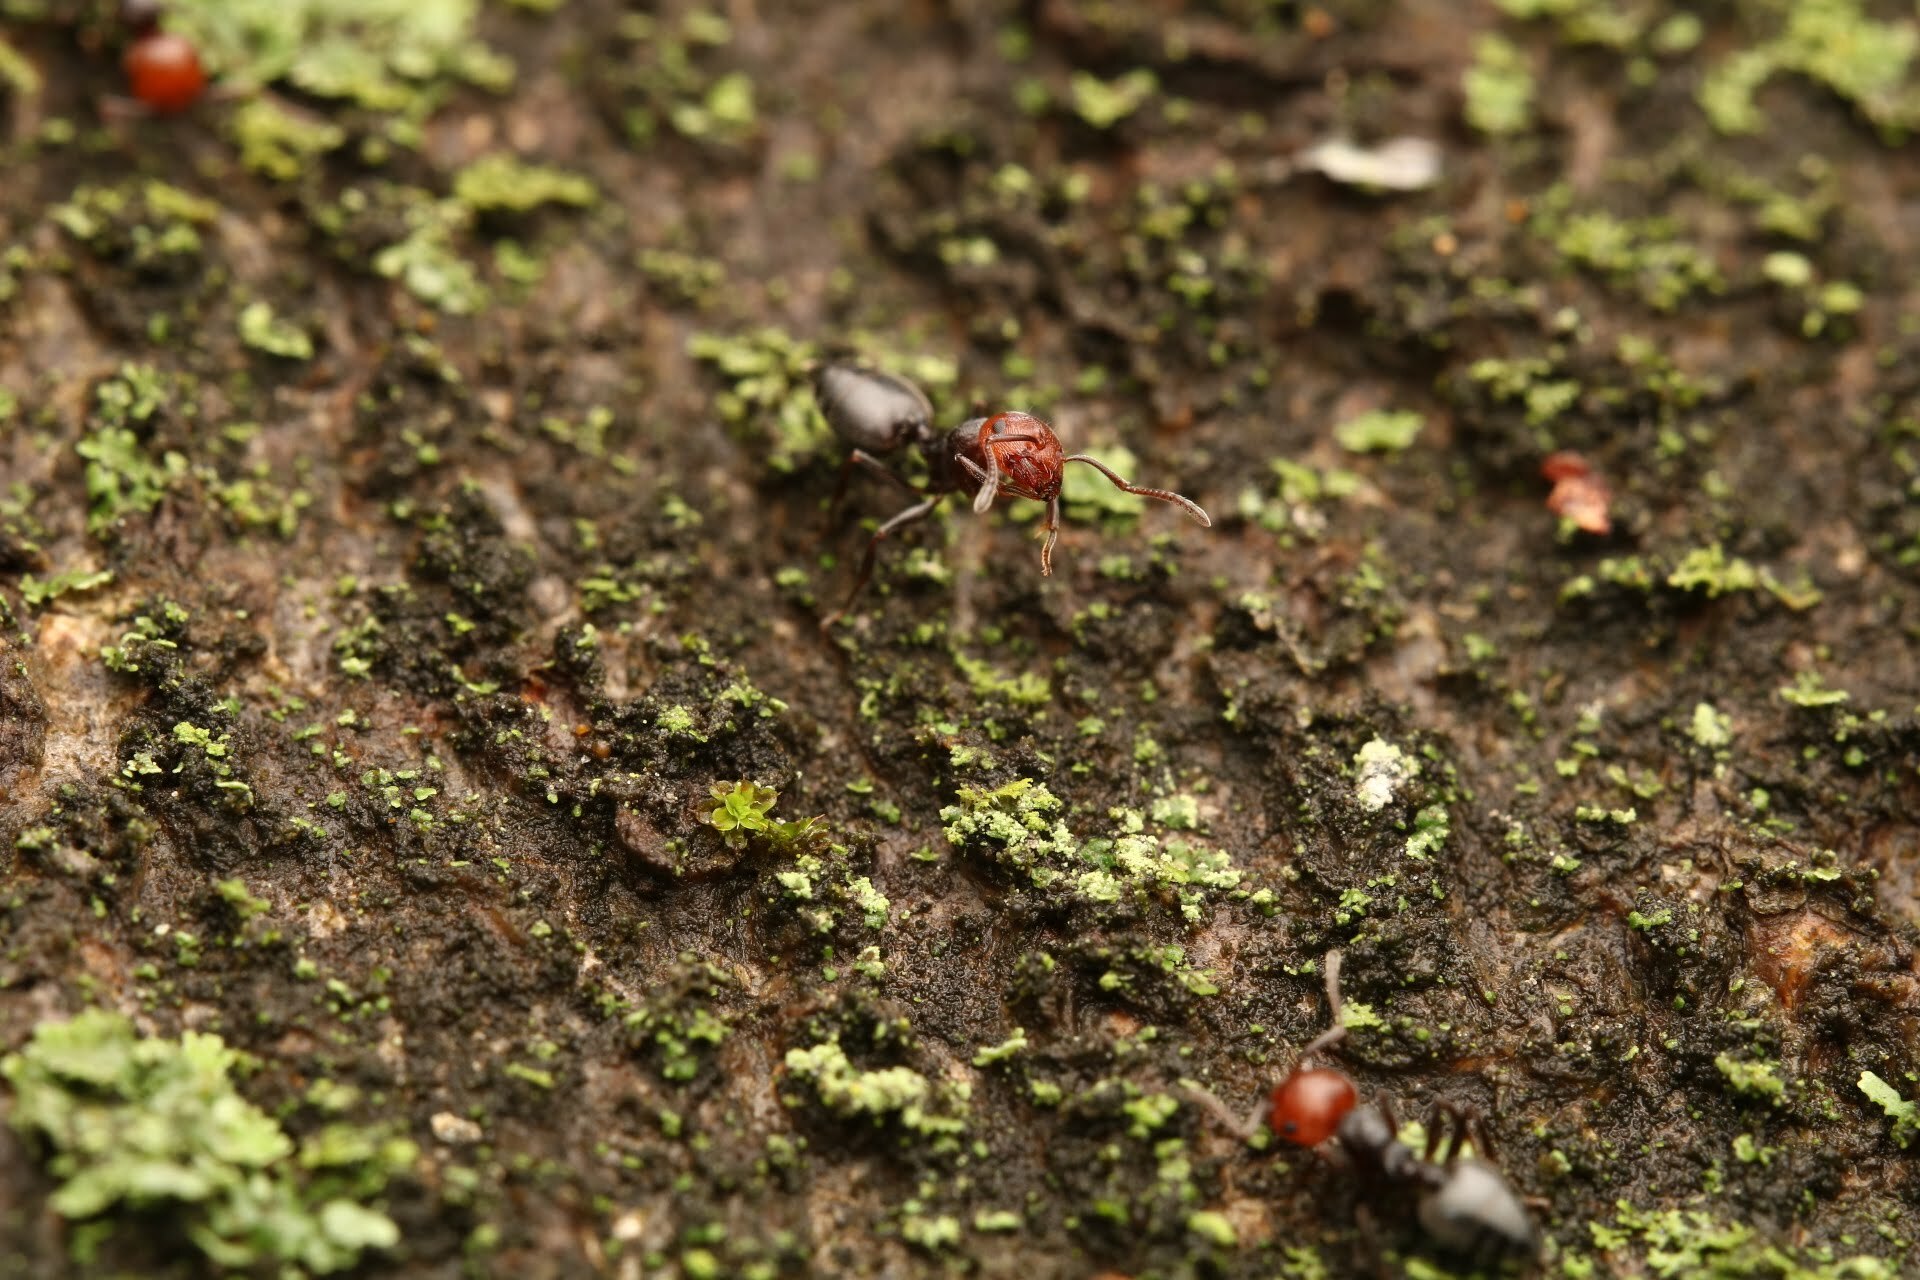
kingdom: Animalia
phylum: Arthropoda
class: Insecta
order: Hymenoptera
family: Formicidae
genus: Crematogaster
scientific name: Crematogaster scutellaris
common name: Fourmi du liège
